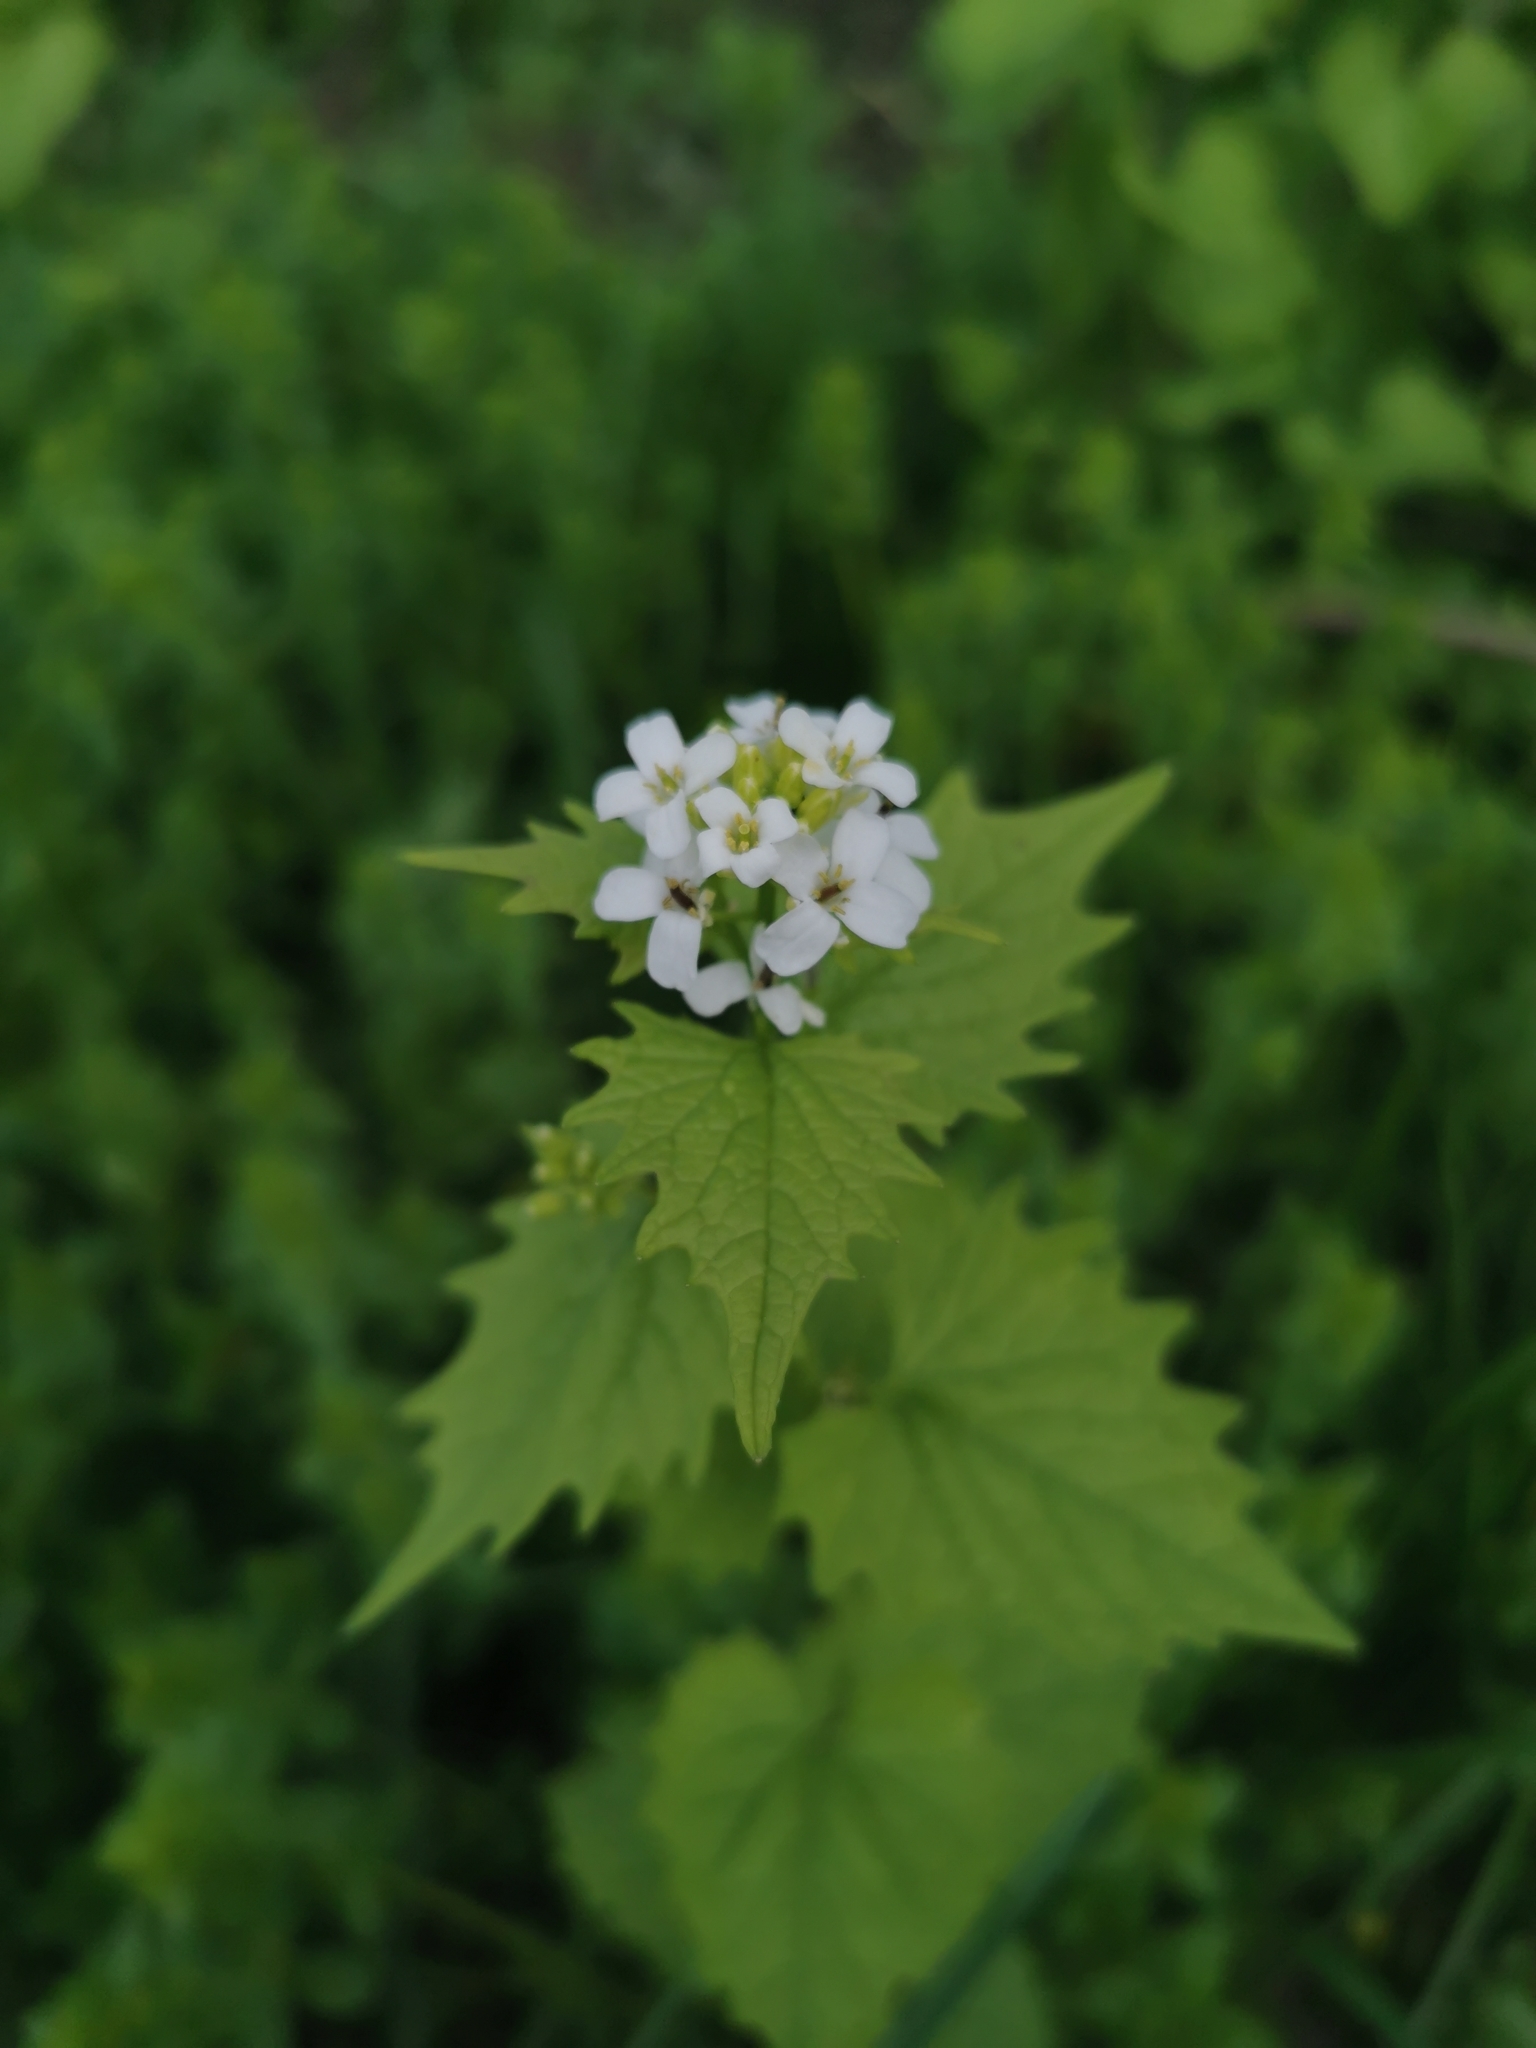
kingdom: Plantae
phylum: Tracheophyta
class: Magnoliopsida
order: Brassicales
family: Brassicaceae
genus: Alliaria
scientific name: Alliaria petiolata
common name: Garlic mustard
